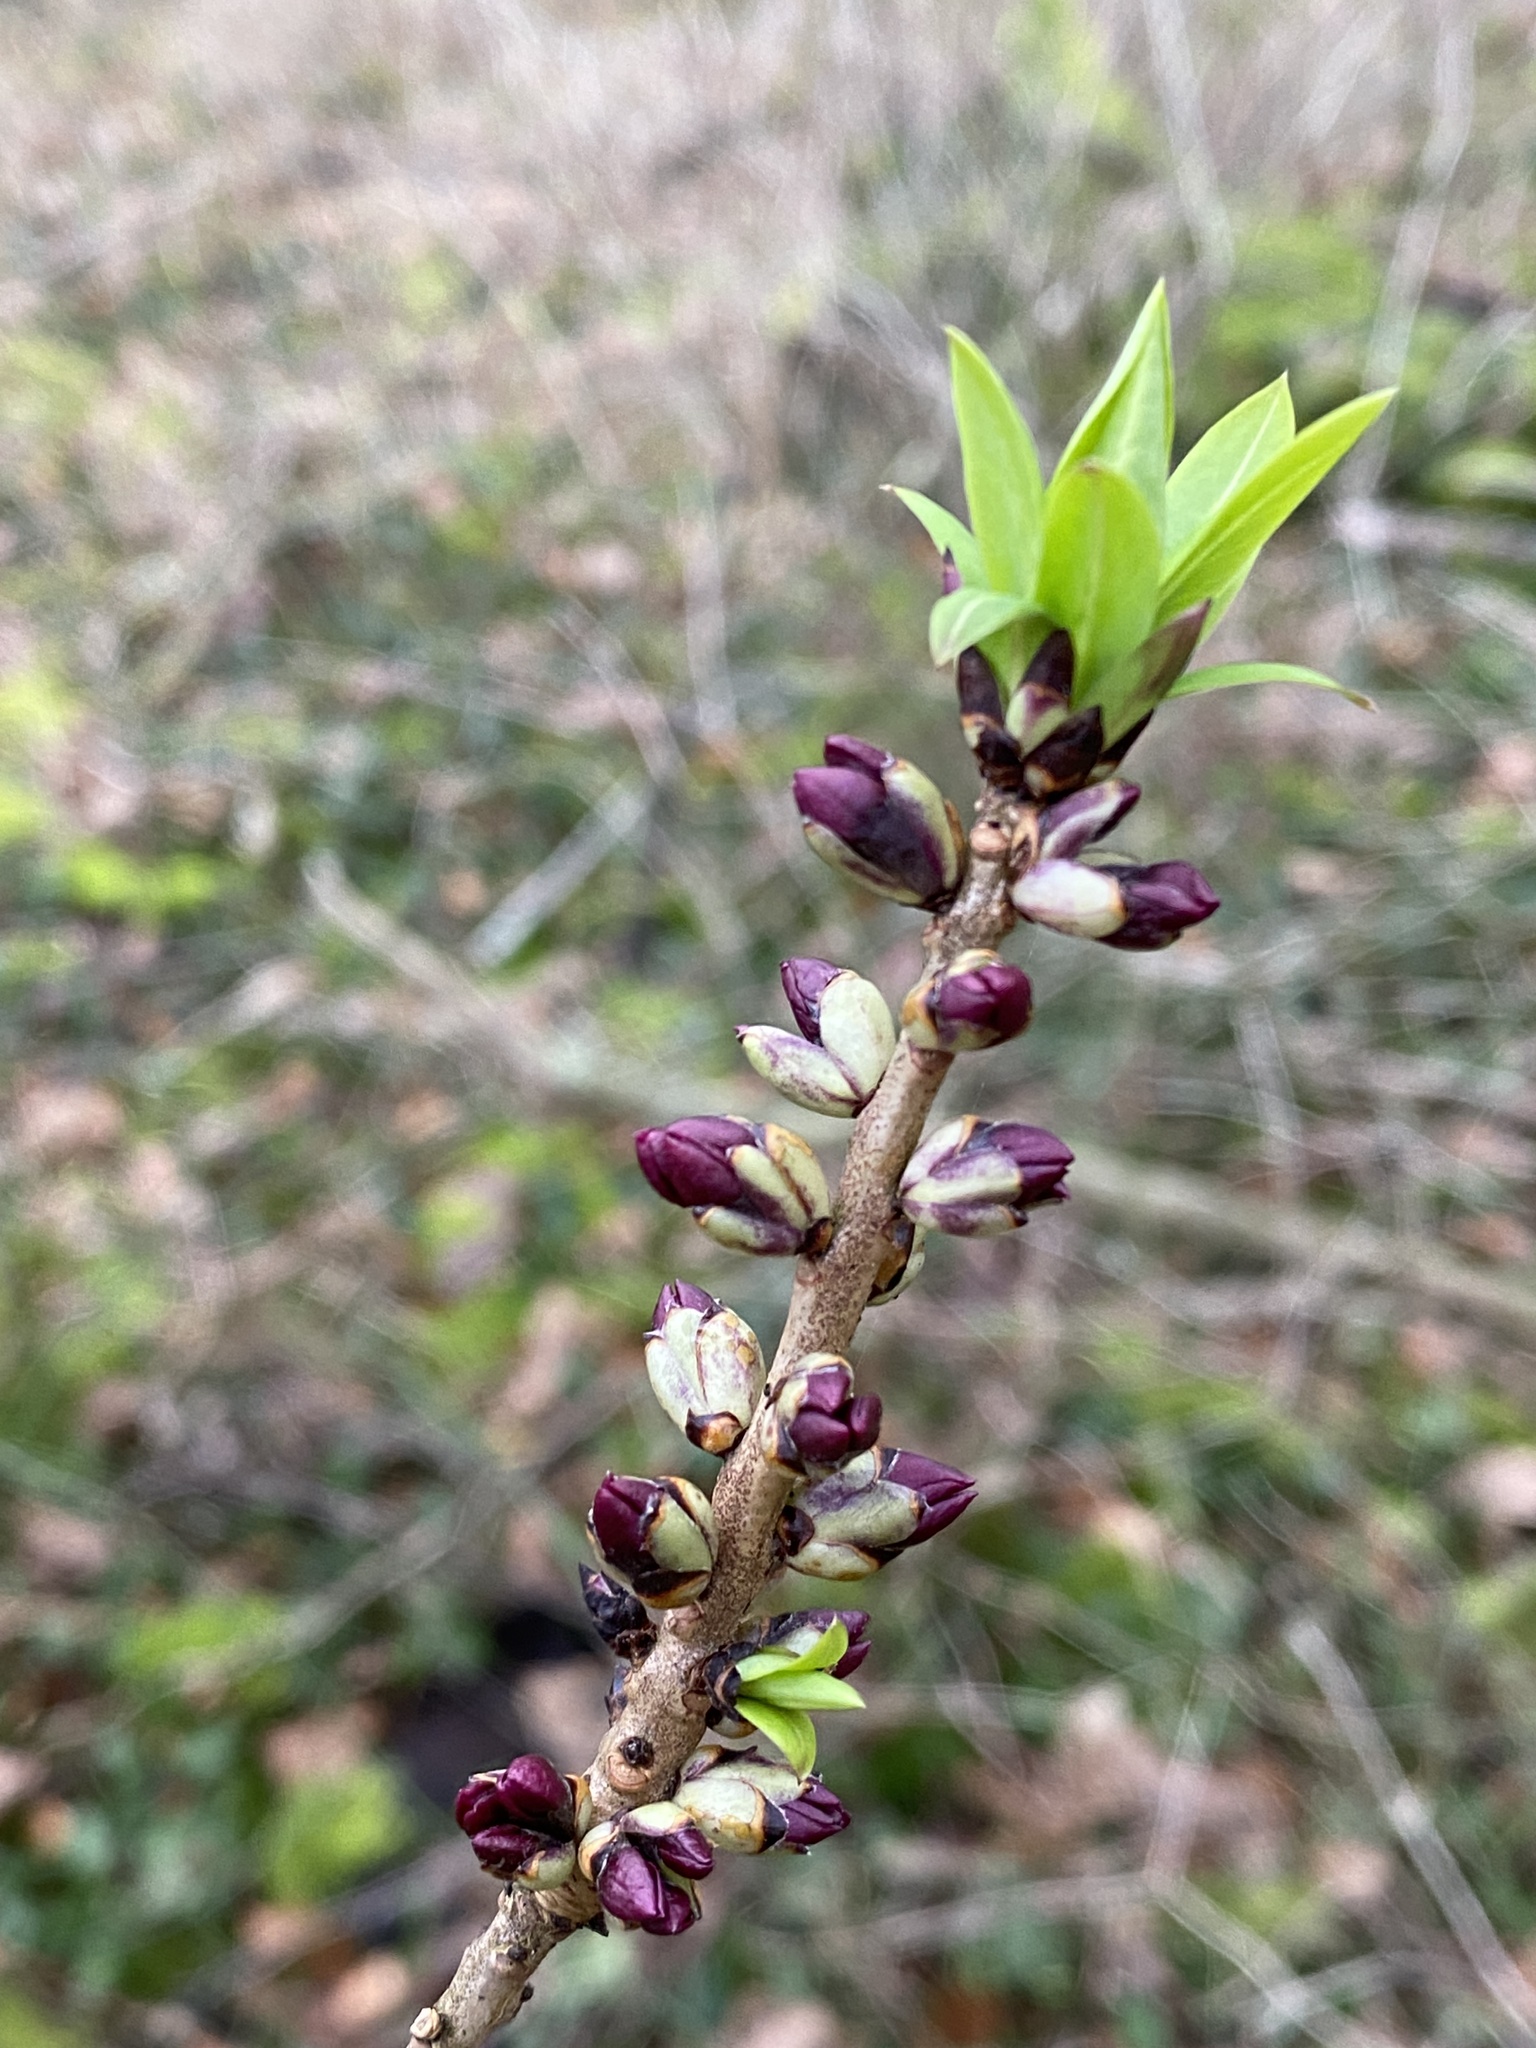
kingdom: Plantae
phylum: Tracheophyta
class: Magnoliopsida
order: Malvales
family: Thymelaeaceae
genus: Daphne
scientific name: Daphne mezereum
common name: Mezereon
